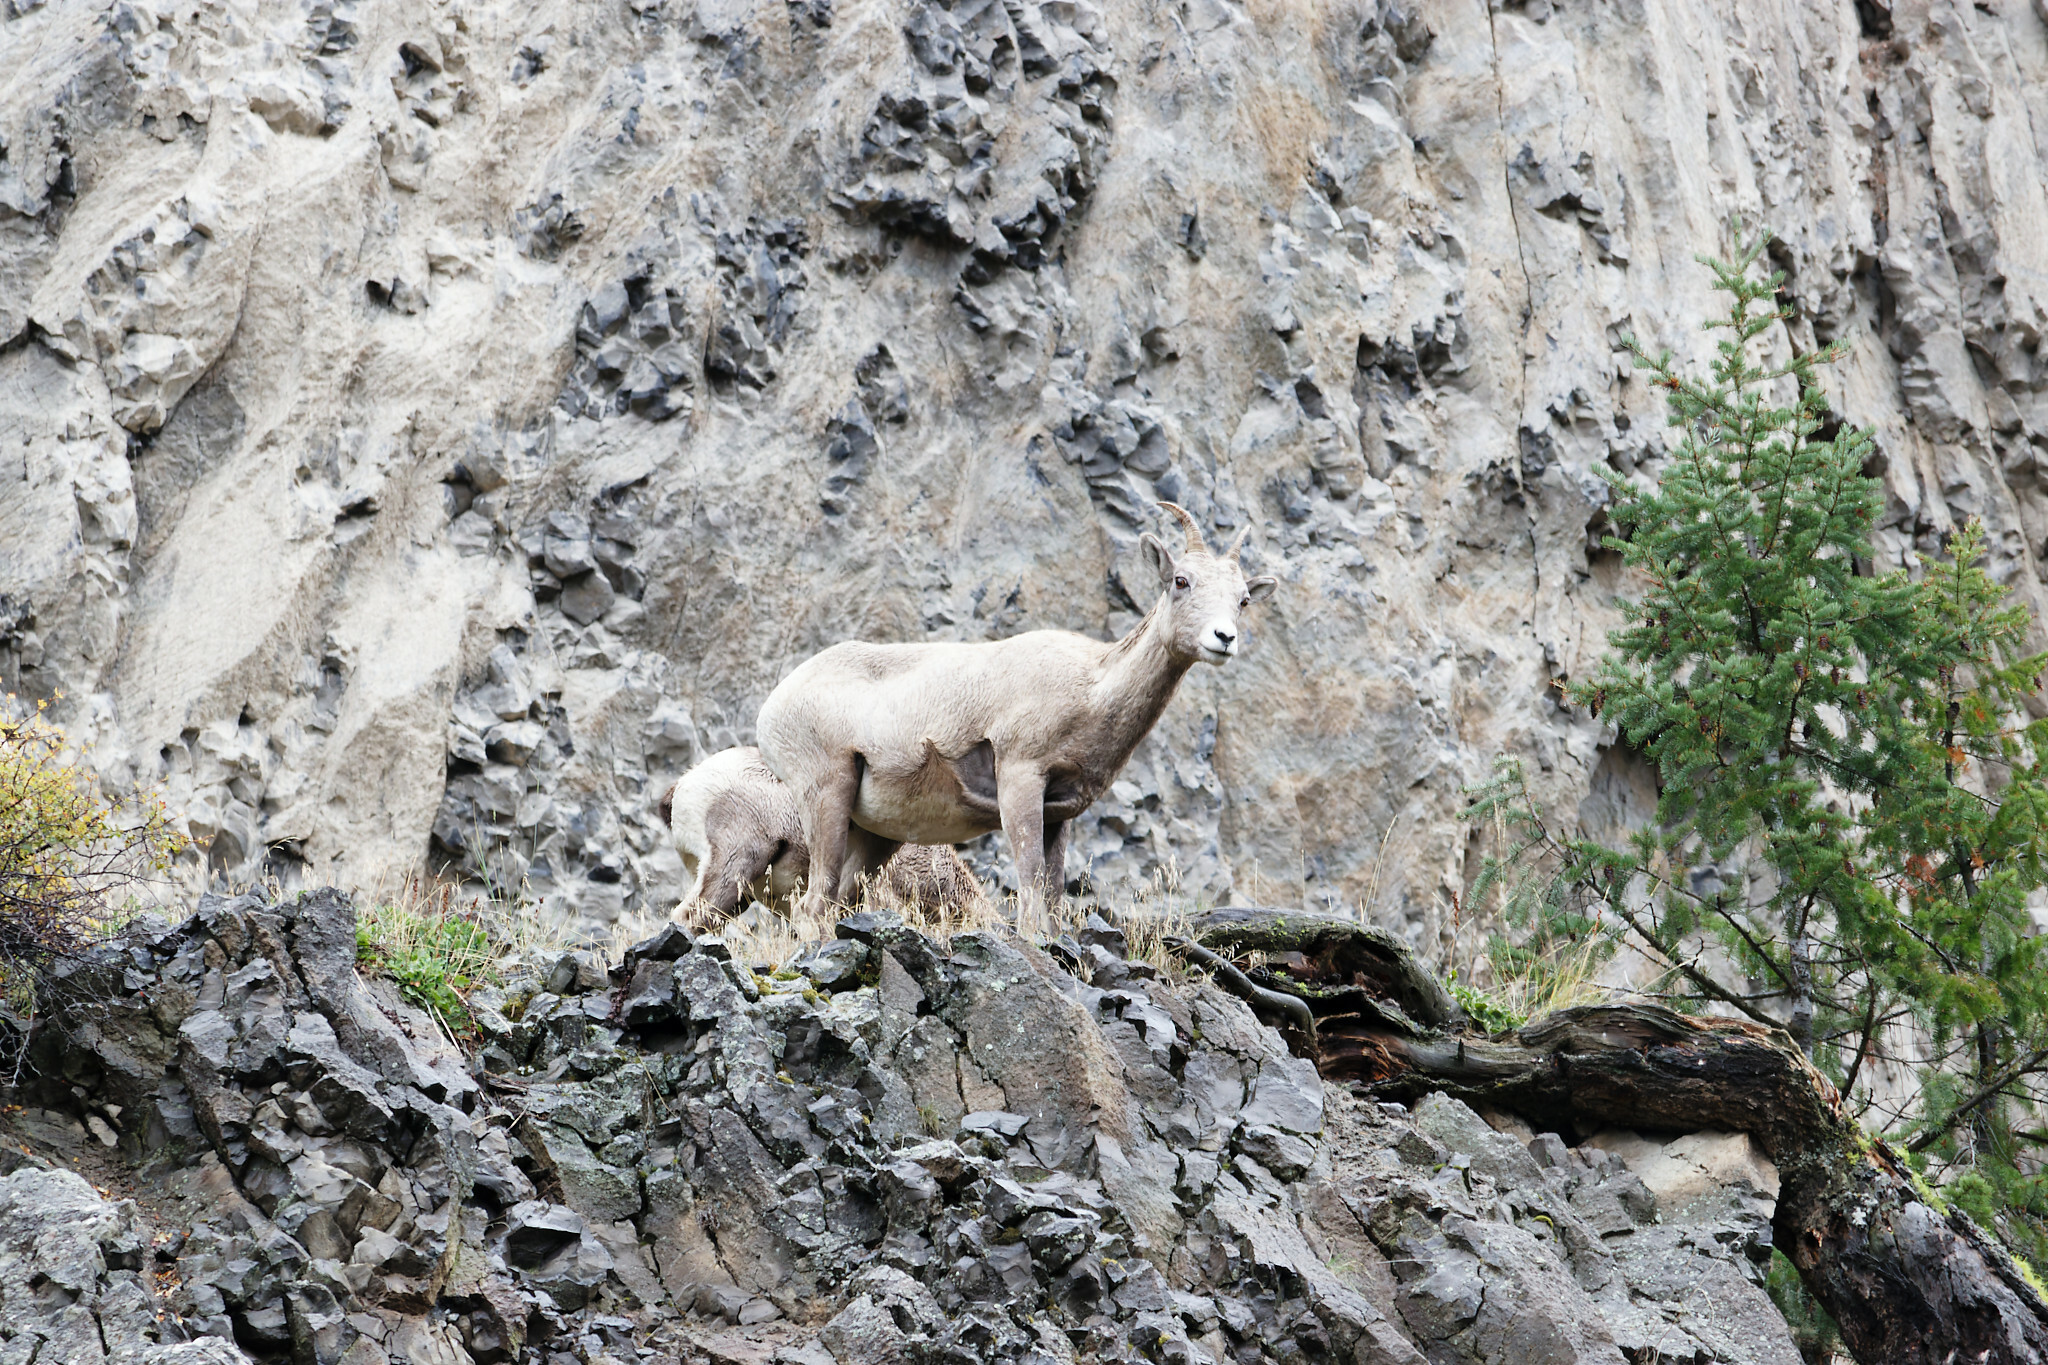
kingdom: Animalia
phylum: Chordata
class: Mammalia
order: Artiodactyla
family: Bovidae
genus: Ovis
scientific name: Ovis canadensis
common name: Bighorn sheep
